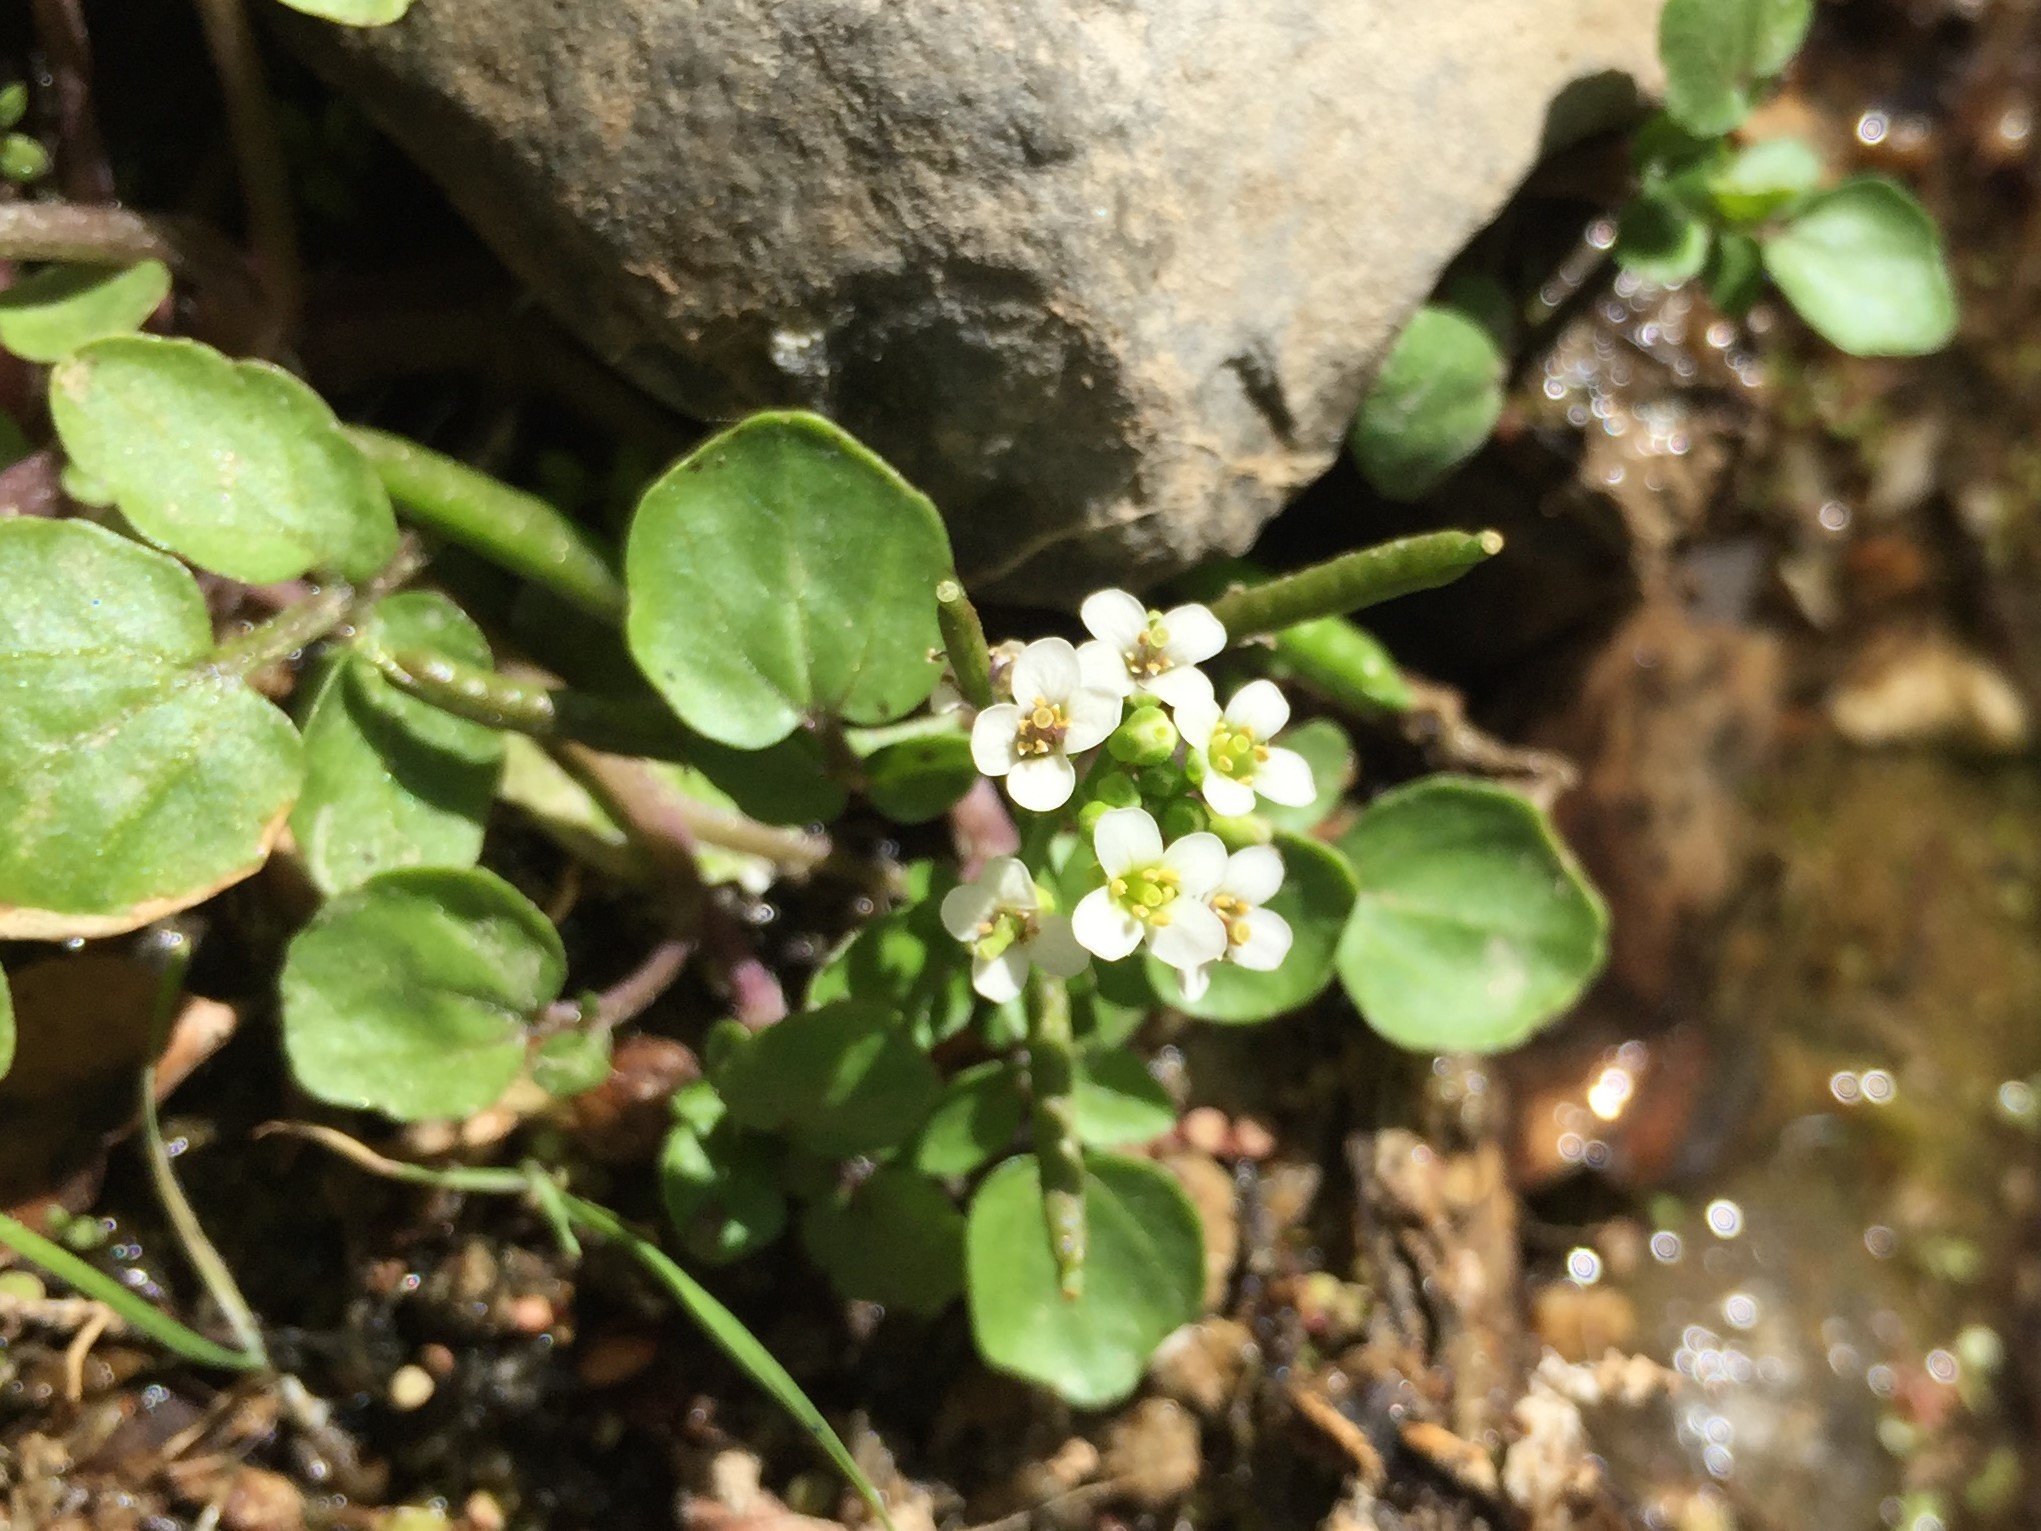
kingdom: Plantae
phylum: Tracheophyta
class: Magnoliopsida
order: Brassicales
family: Brassicaceae
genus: Nasturtium
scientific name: Nasturtium officinale
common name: Watercress
